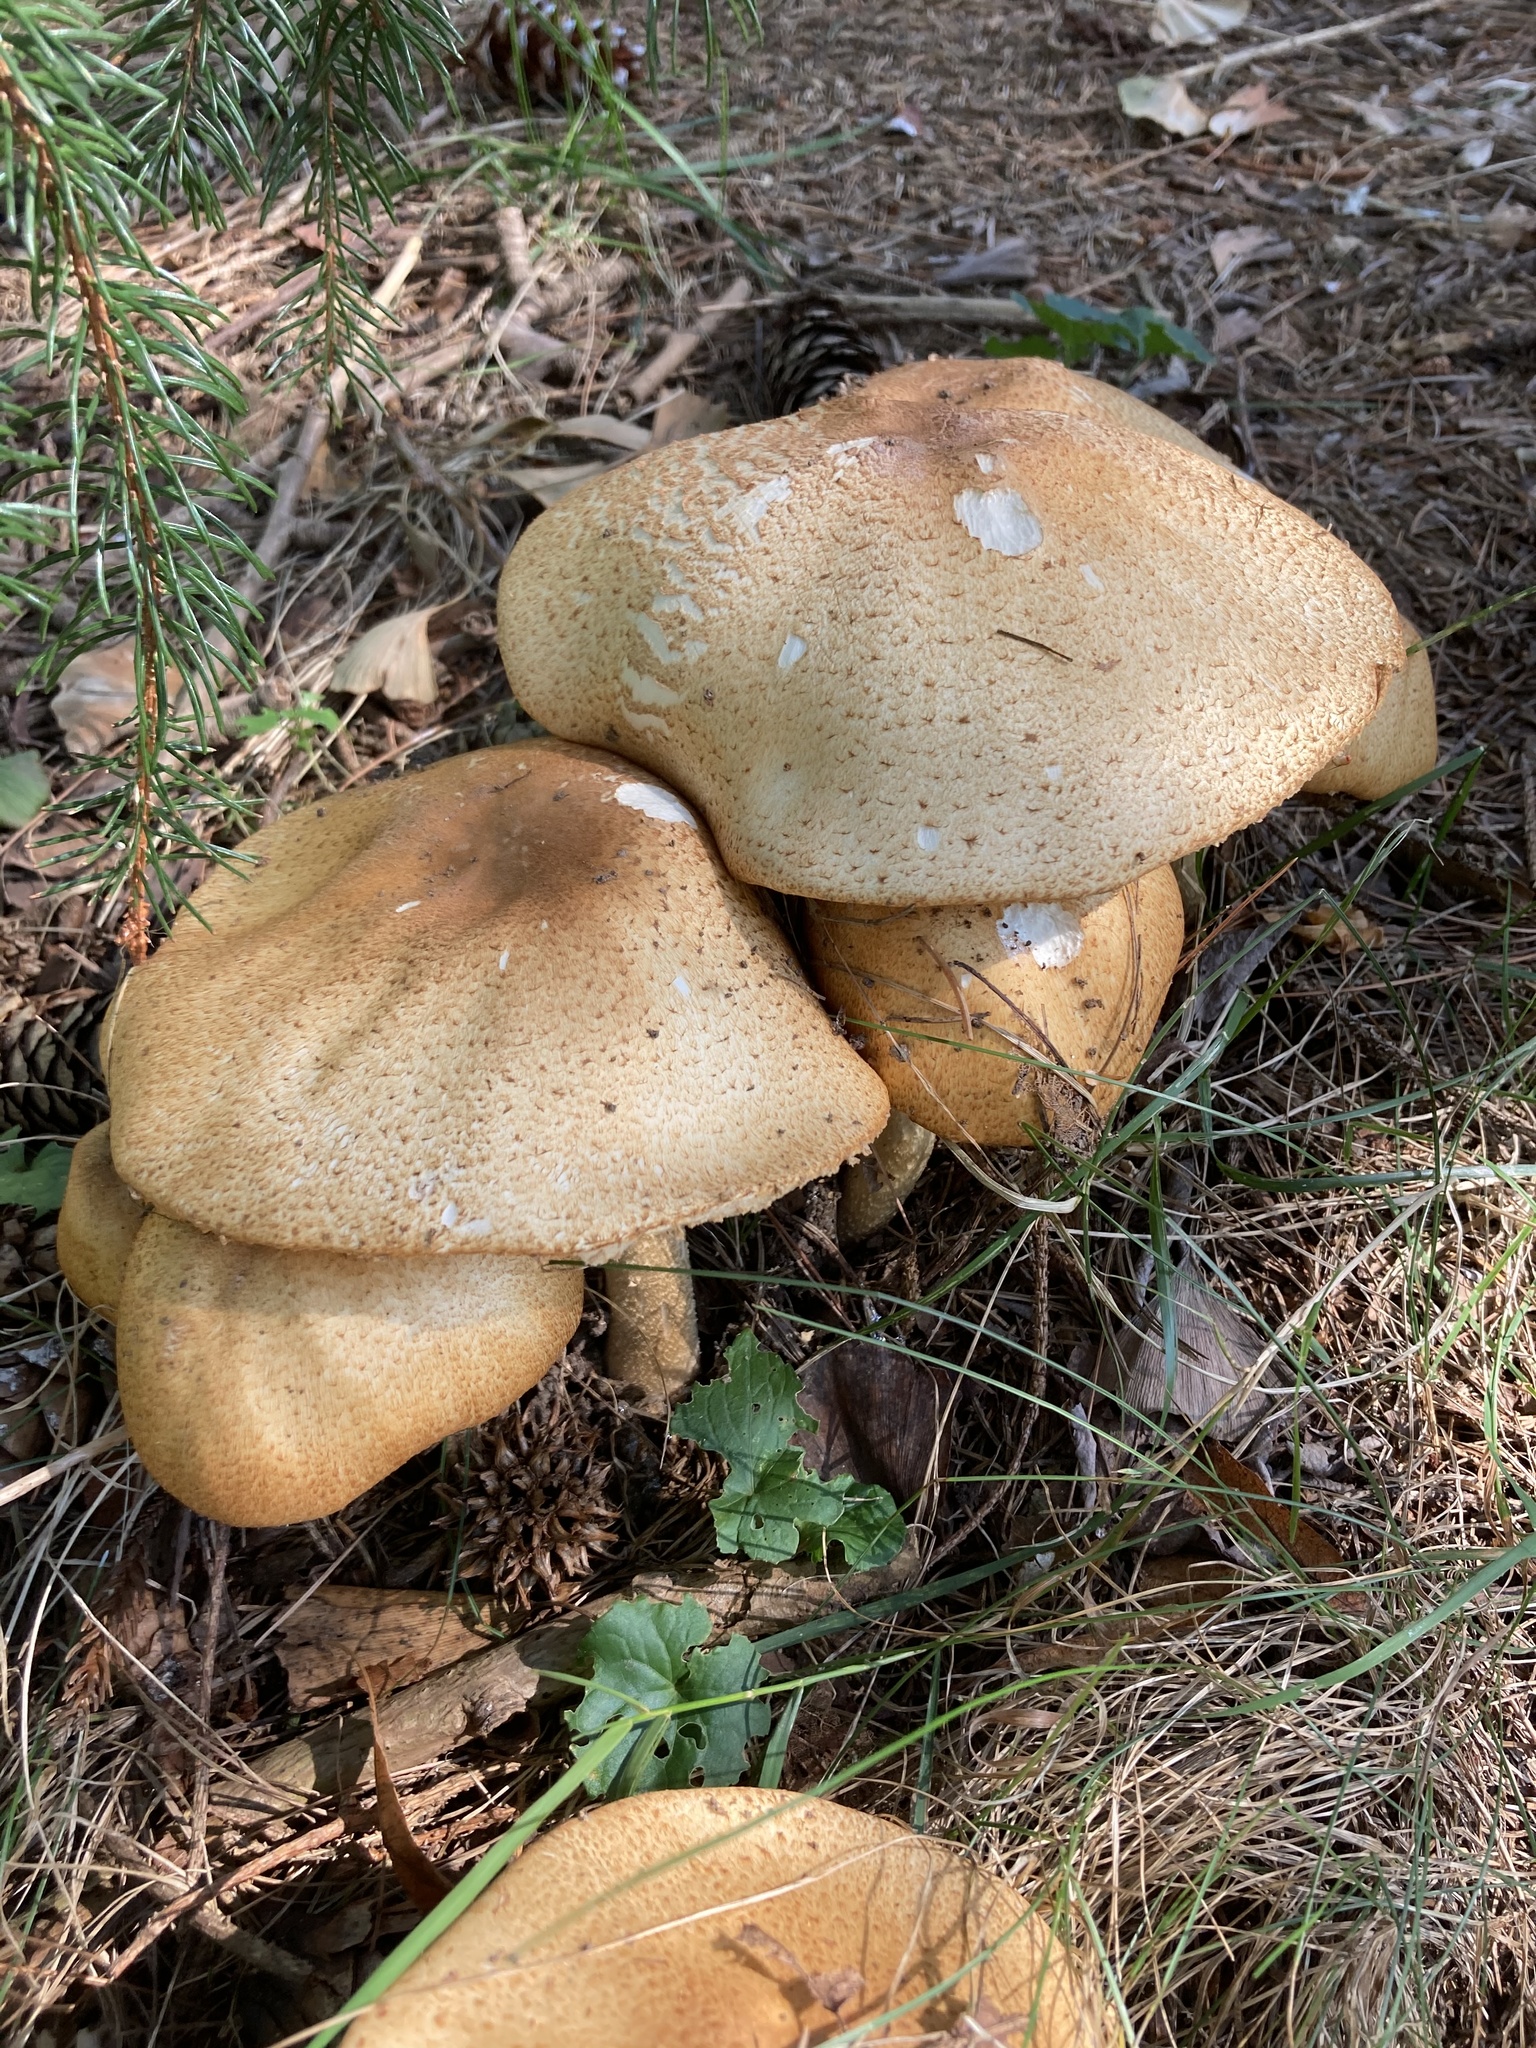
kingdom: Fungi
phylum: Basidiomycota
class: Agaricomycetes
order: Agaricales
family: Agaricaceae
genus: Agaricus
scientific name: Agaricus nanaugustus
